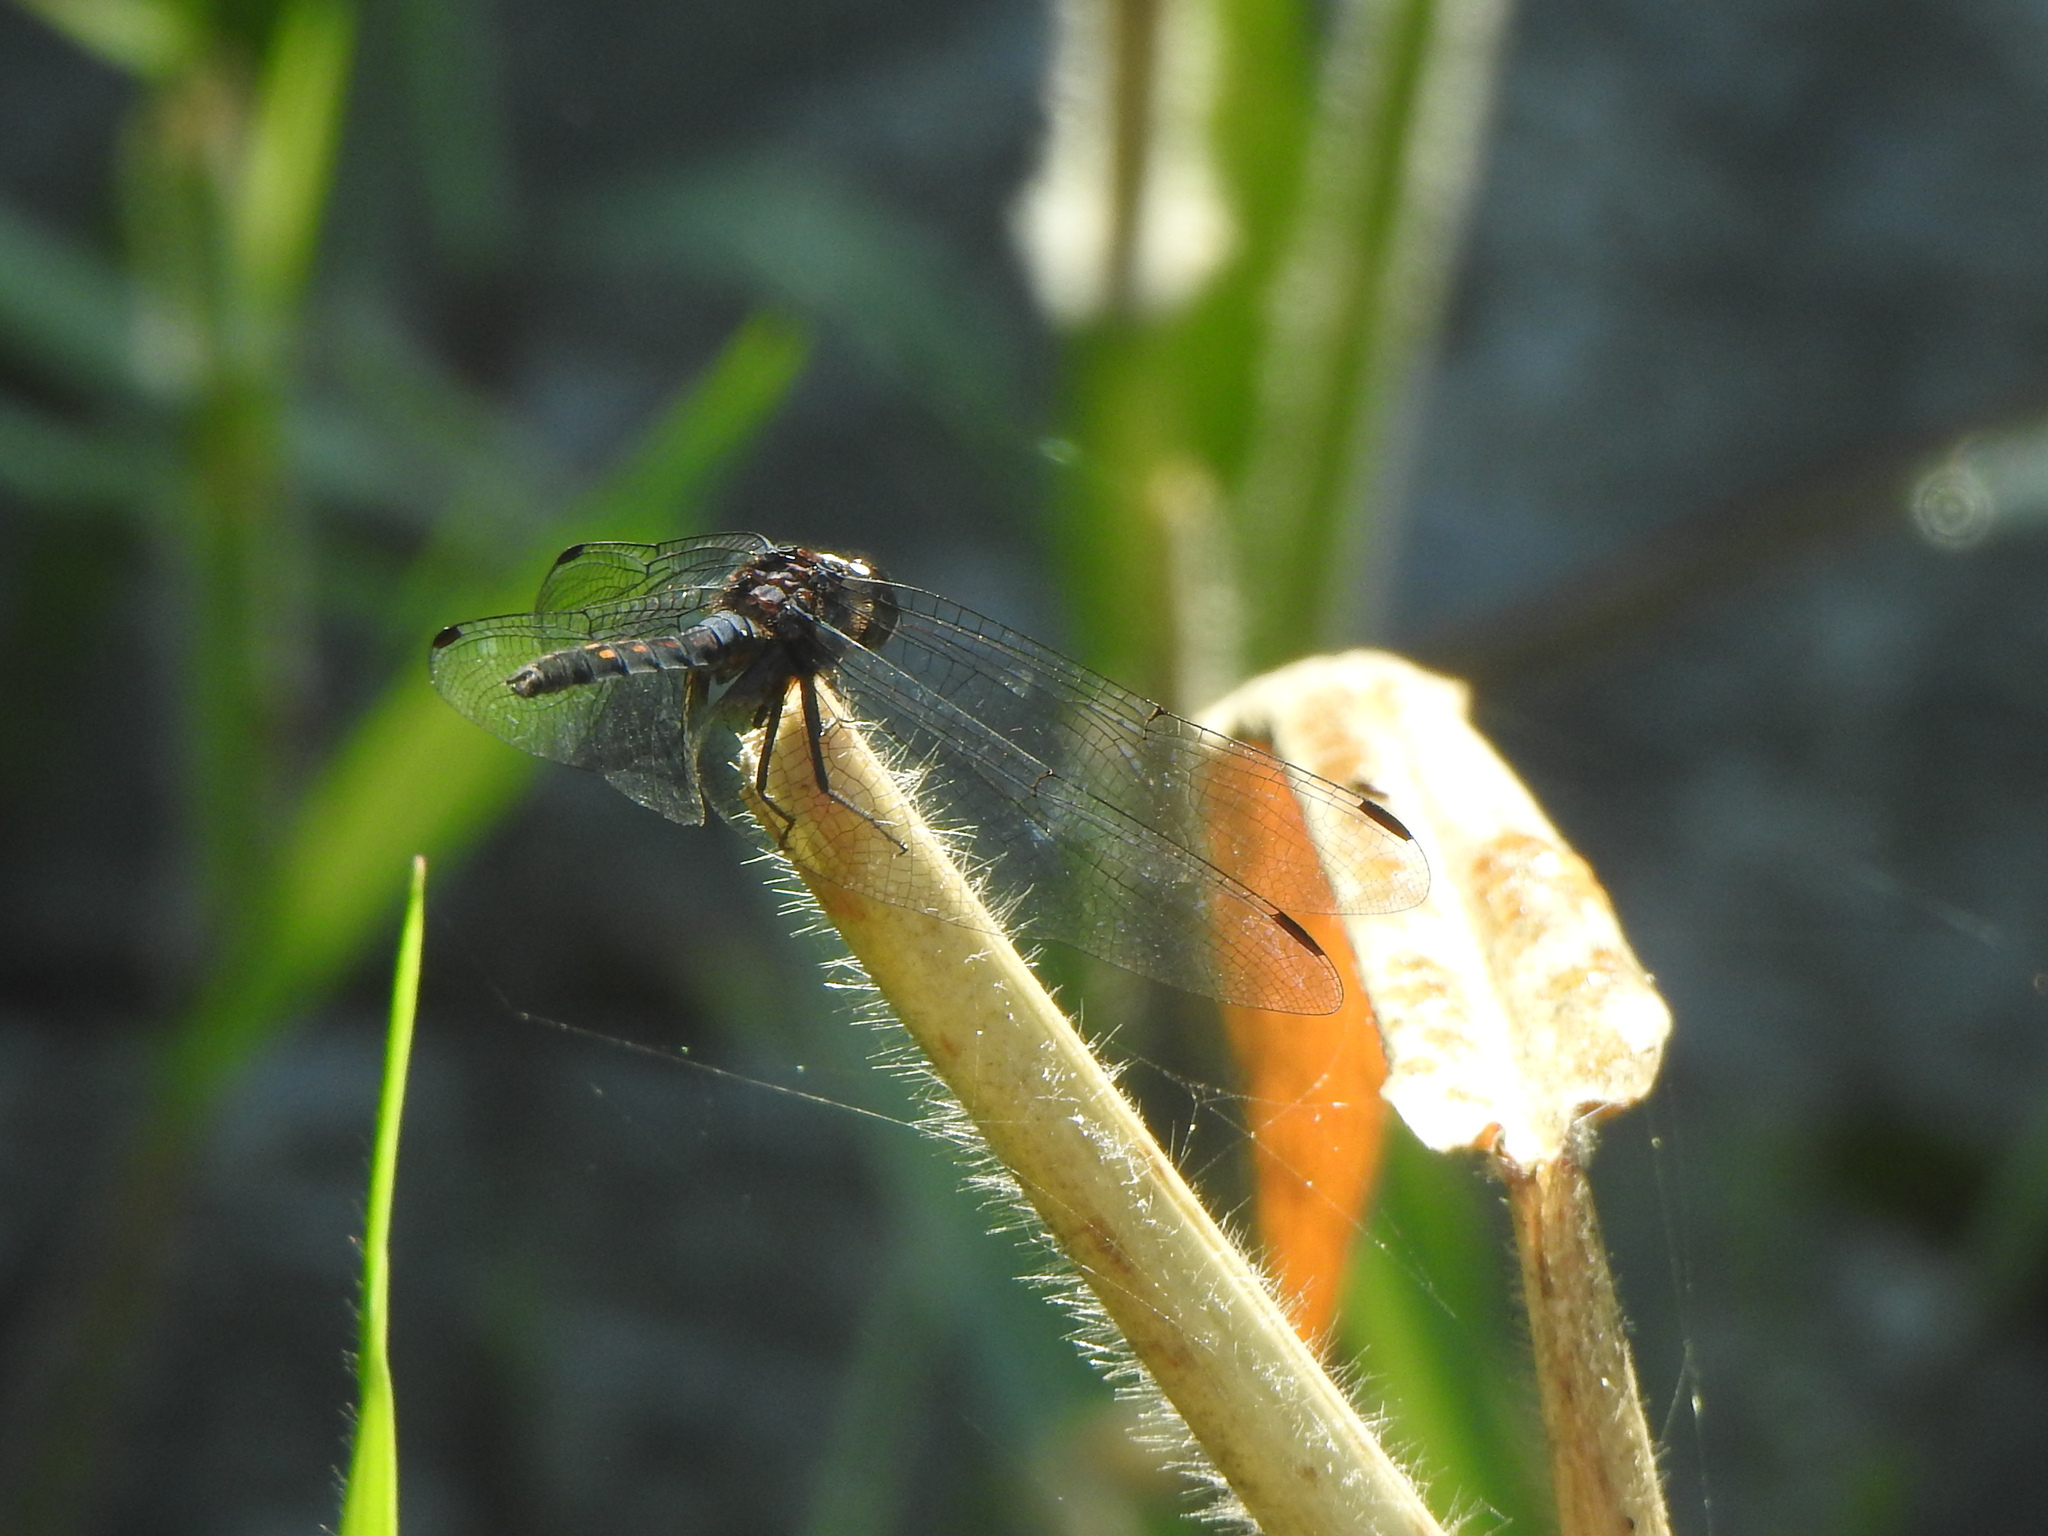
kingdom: Animalia
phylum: Arthropoda
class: Insecta
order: Odonata
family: Libellulidae
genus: Trithemis
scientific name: Trithemis festiva
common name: Indigo dropwing
